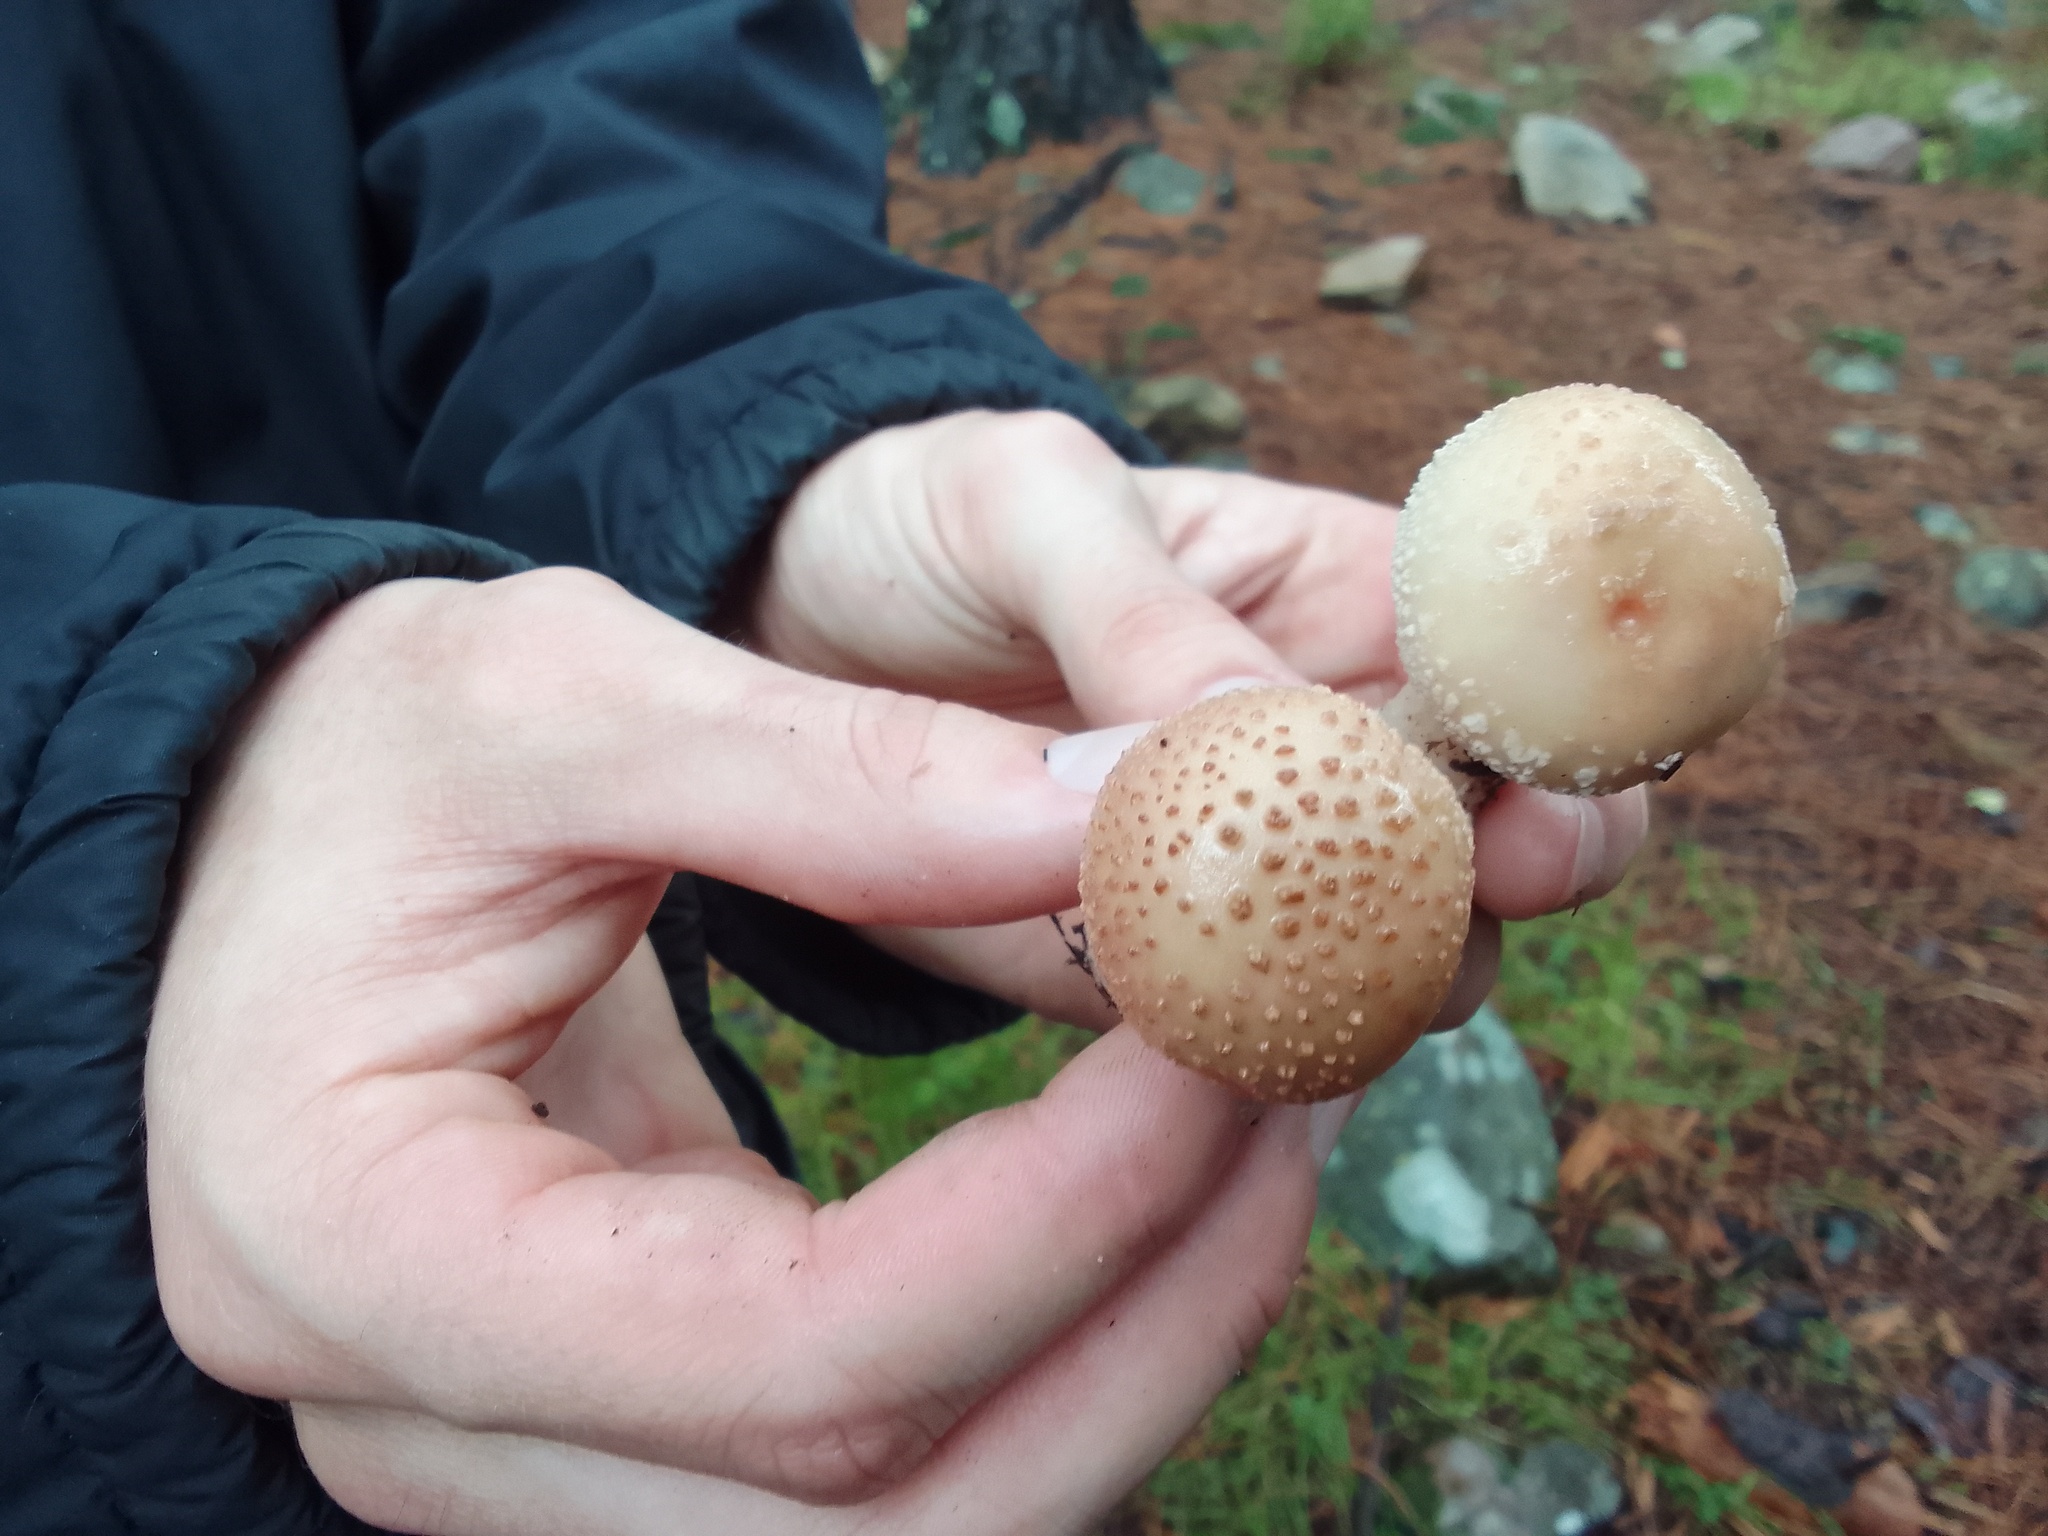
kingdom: Fungi
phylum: Basidiomycota
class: Agaricomycetes
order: Agaricales
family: Amanitaceae
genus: Amanita
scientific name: Amanita rubescens
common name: Blusher
